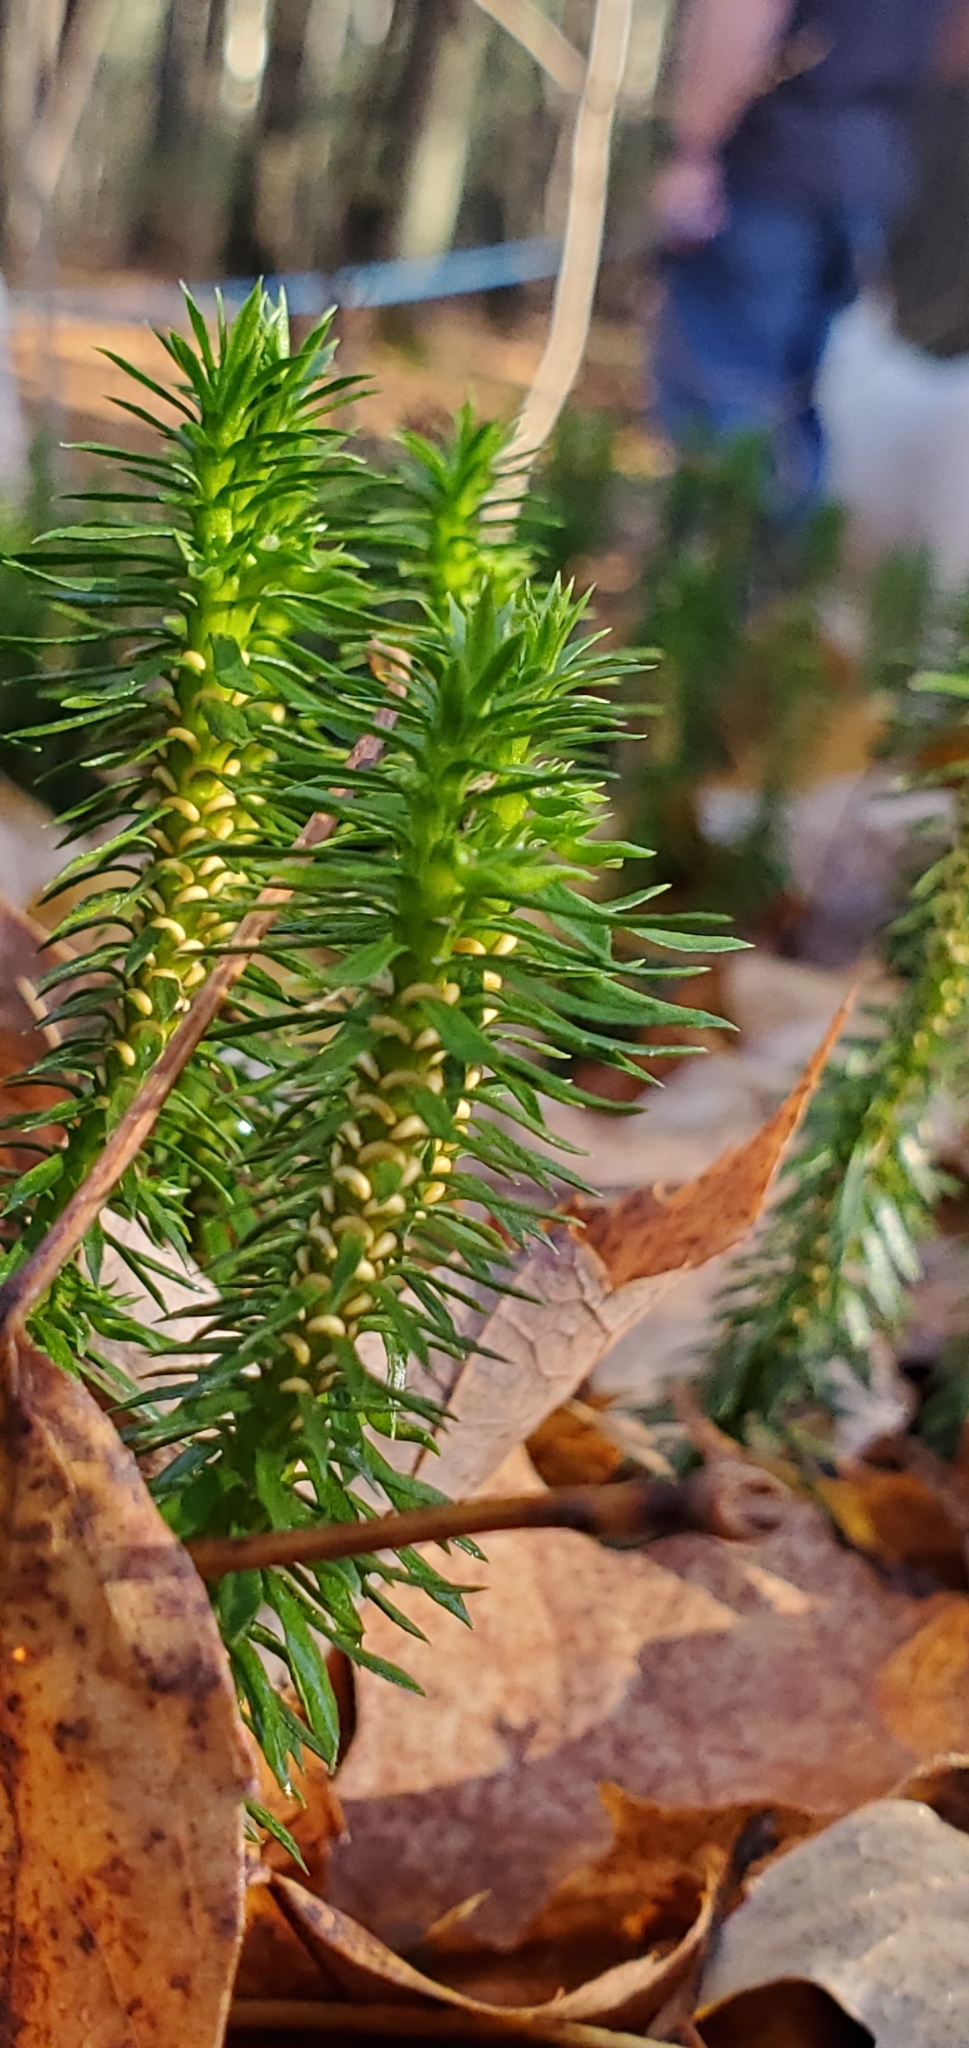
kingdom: Plantae
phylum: Tracheophyta
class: Lycopodiopsida
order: Lycopodiales
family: Lycopodiaceae
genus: Huperzia
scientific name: Huperzia lucidula
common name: Shining clubmoss
